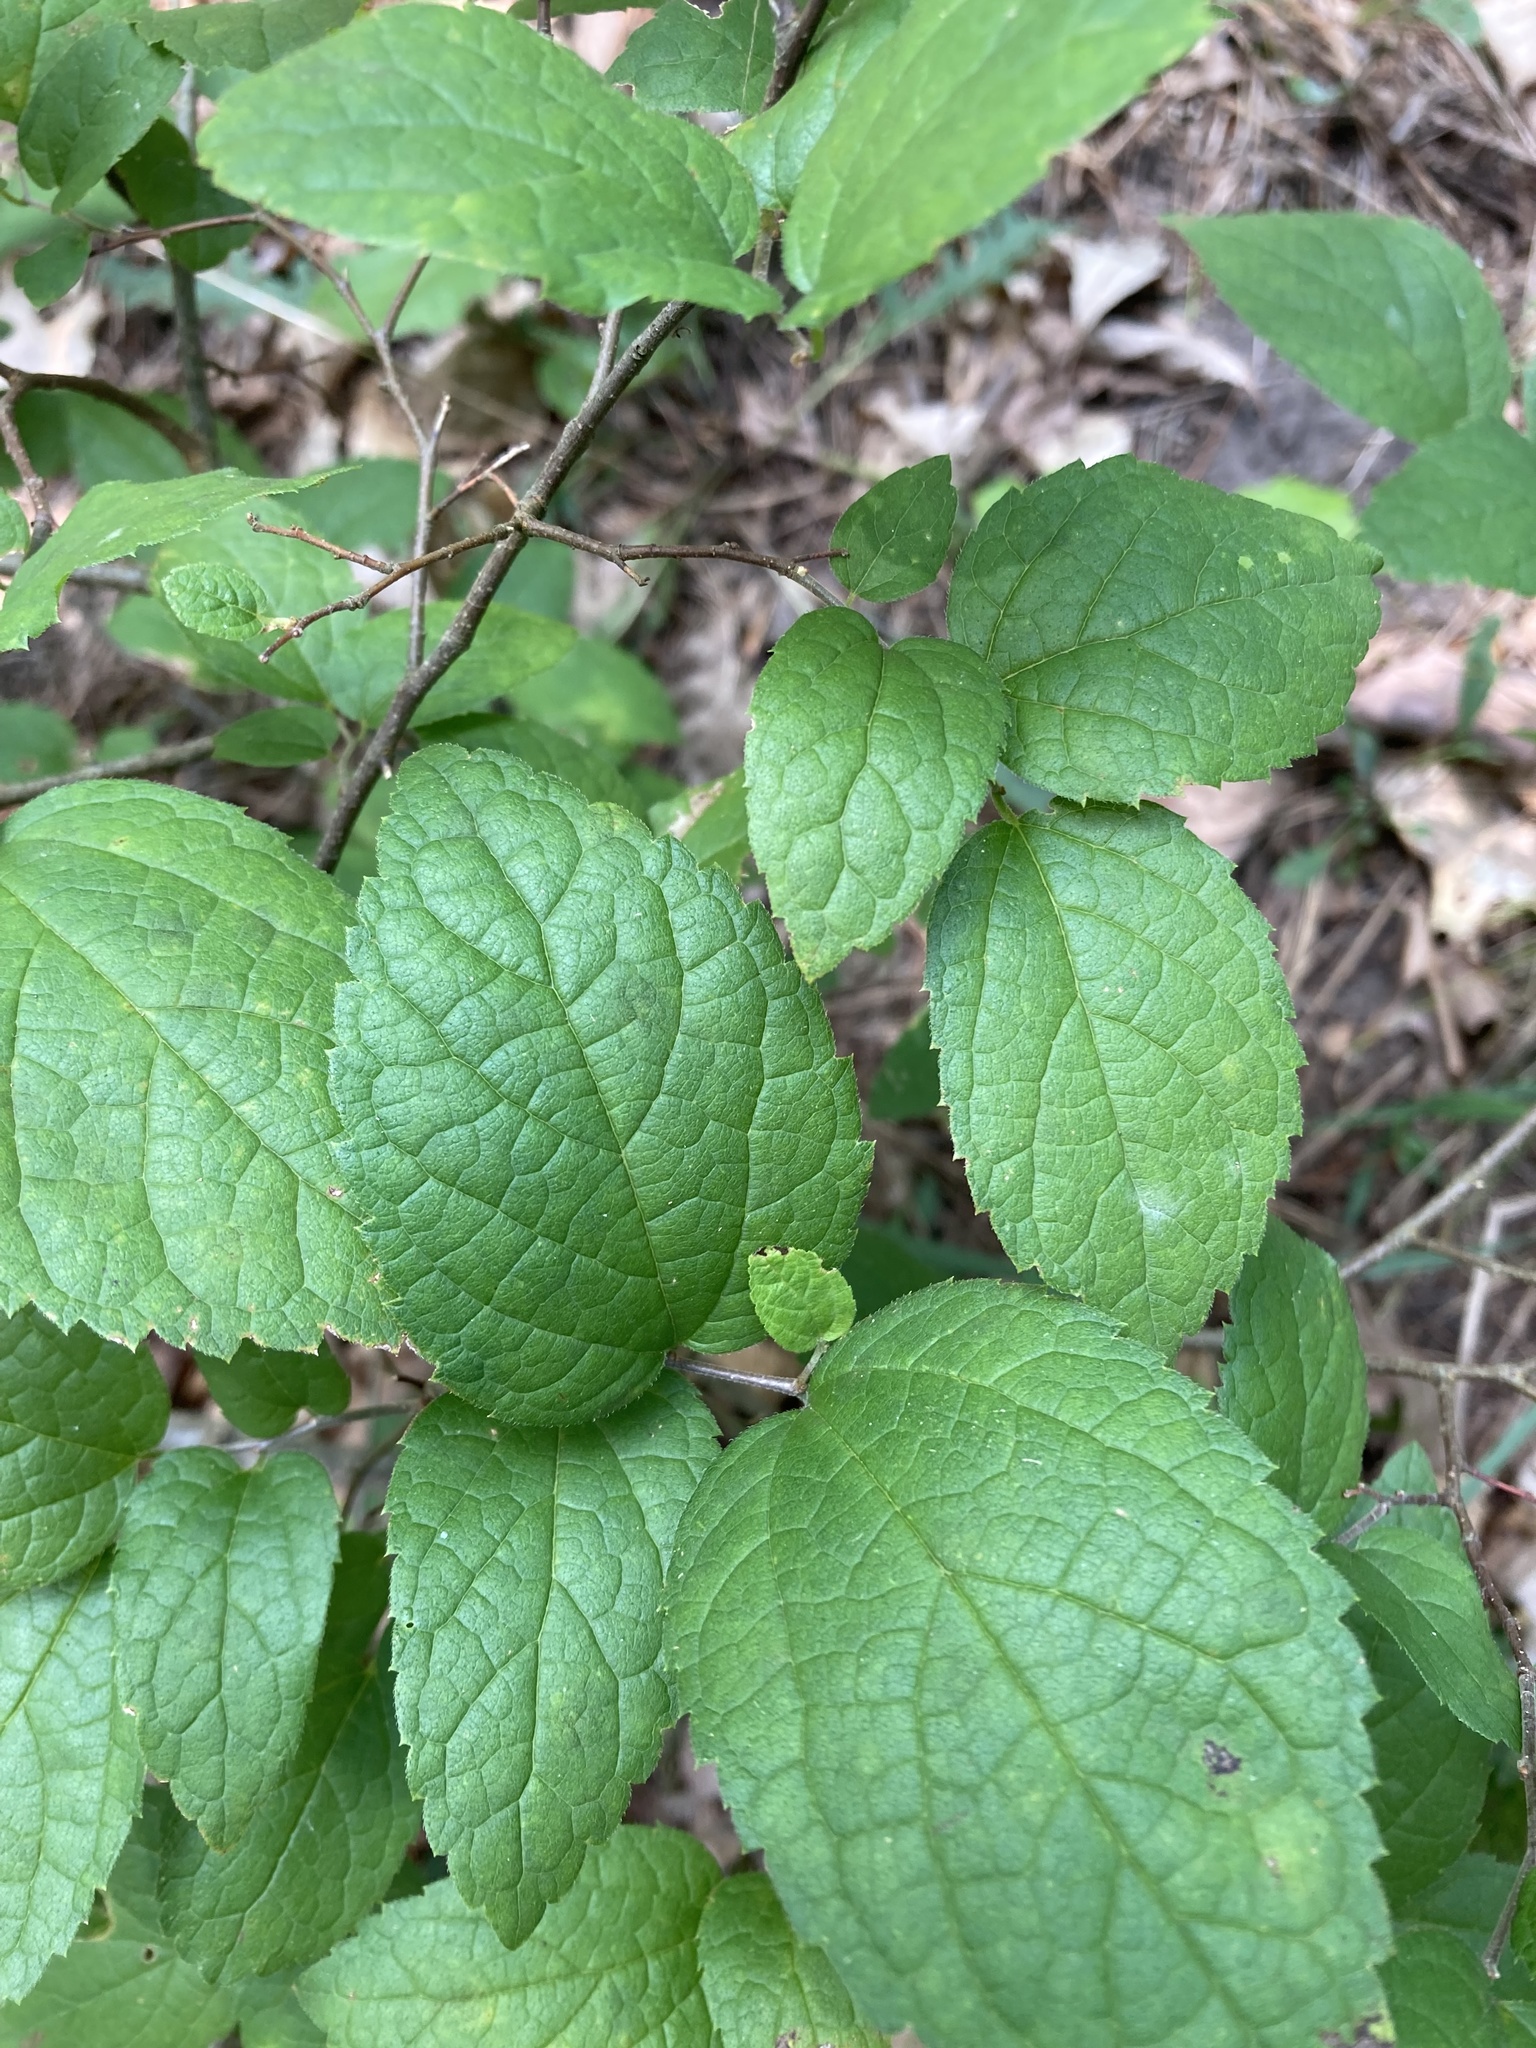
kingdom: Plantae
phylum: Tracheophyta
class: Magnoliopsida
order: Rosales
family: Cannabaceae
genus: Celtis
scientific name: Celtis tenuifolia
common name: Georgia hackberry
